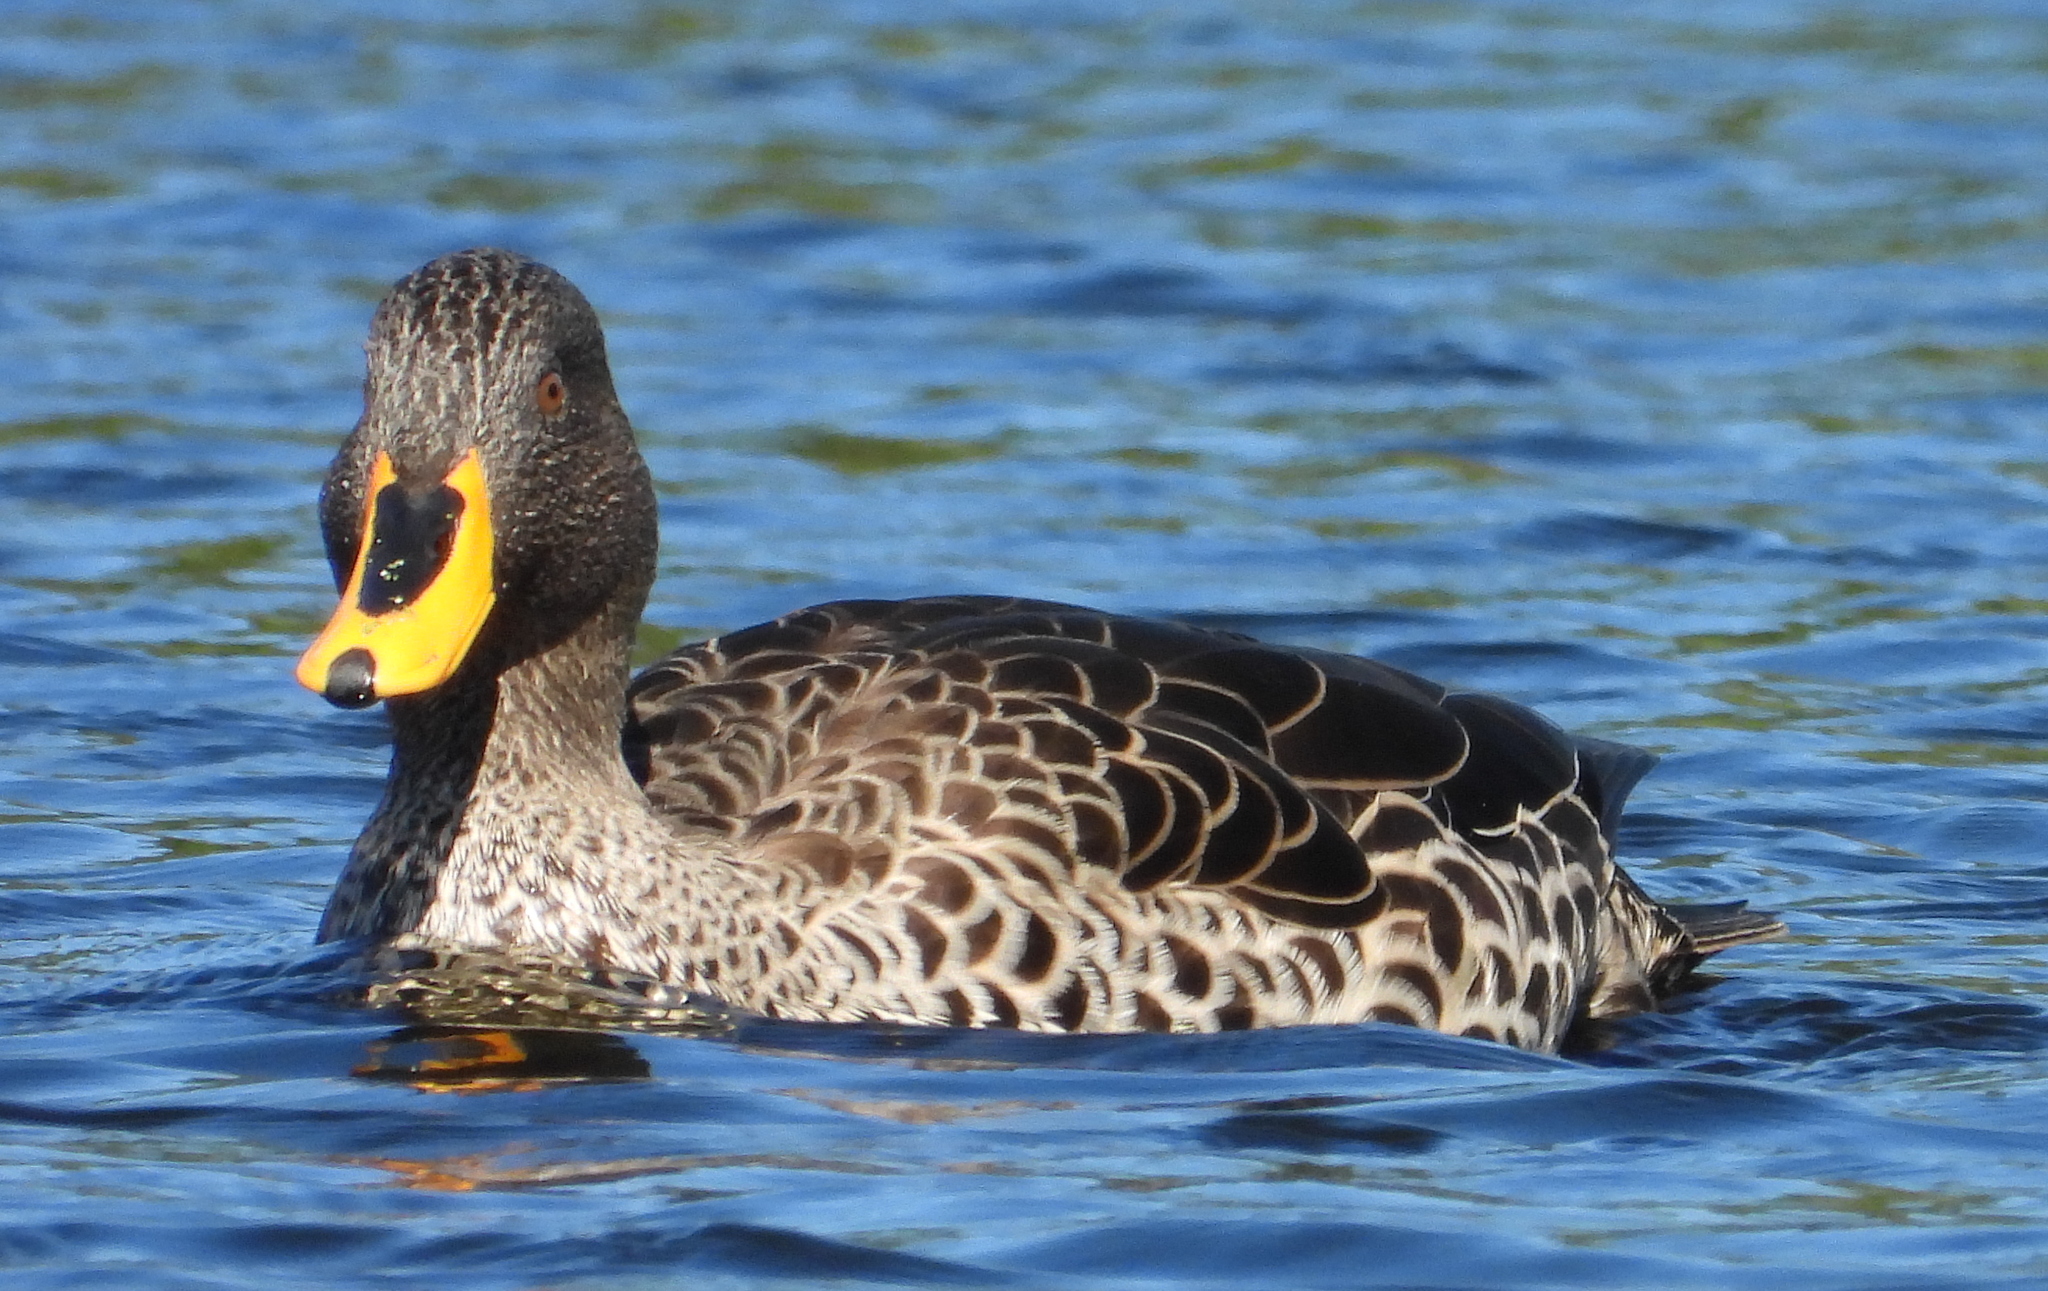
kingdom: Animalia
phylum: Chordata
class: Aves
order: Anseriformes
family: Anatidae
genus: Anas
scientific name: Anas undulata
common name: Yellow-billed duck
